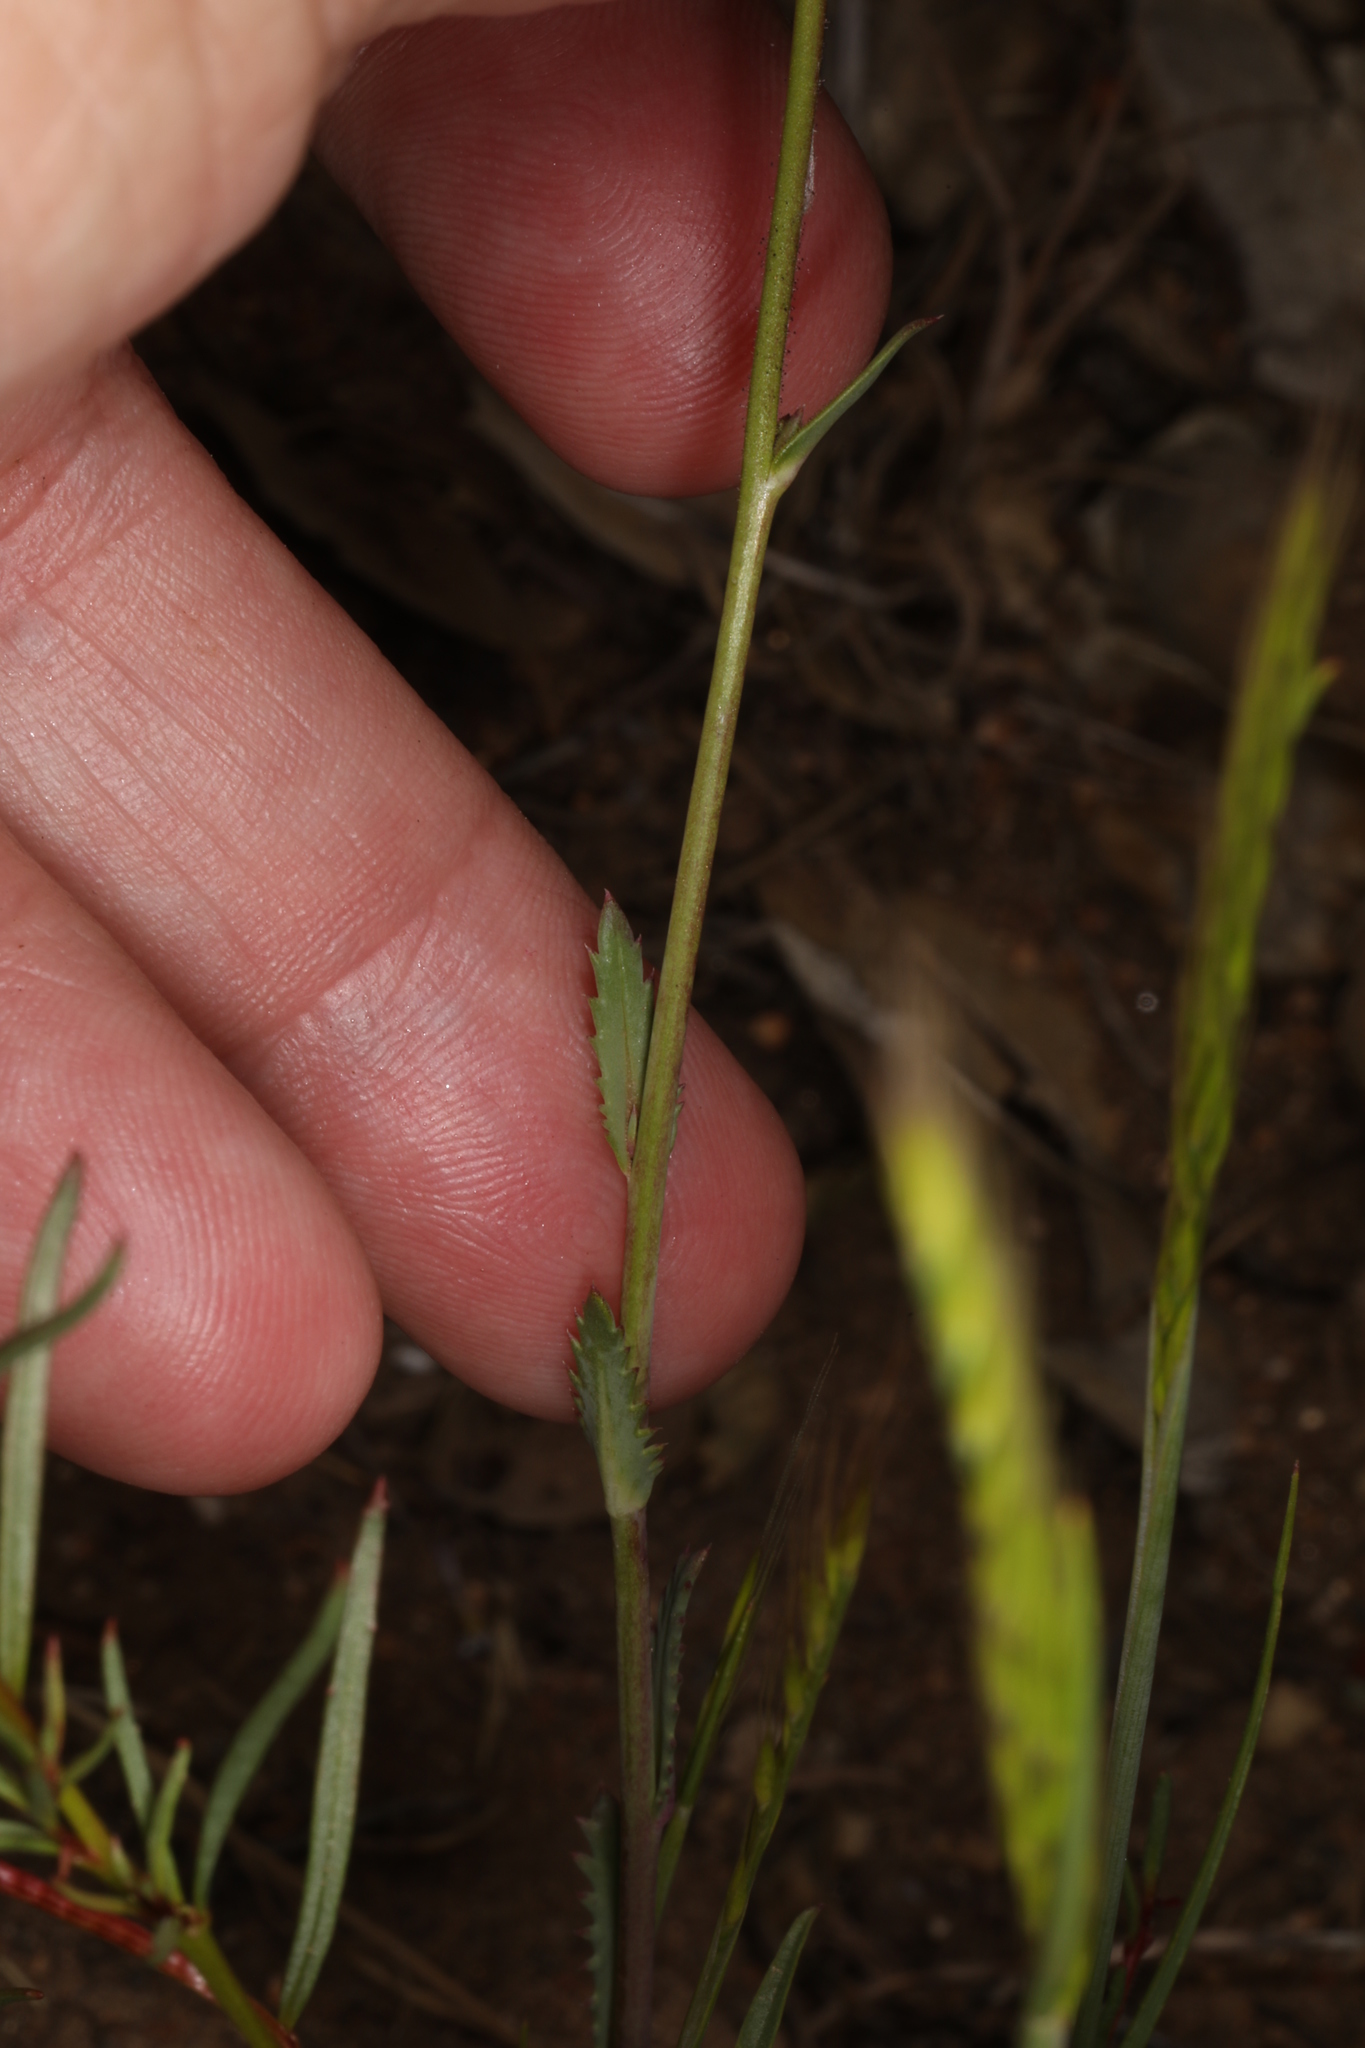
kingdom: Plantae
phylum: Tracheophyta
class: Magnoliopsida
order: Ericales
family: Polemoniaceae
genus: Gilia
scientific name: Gilia diegensis
